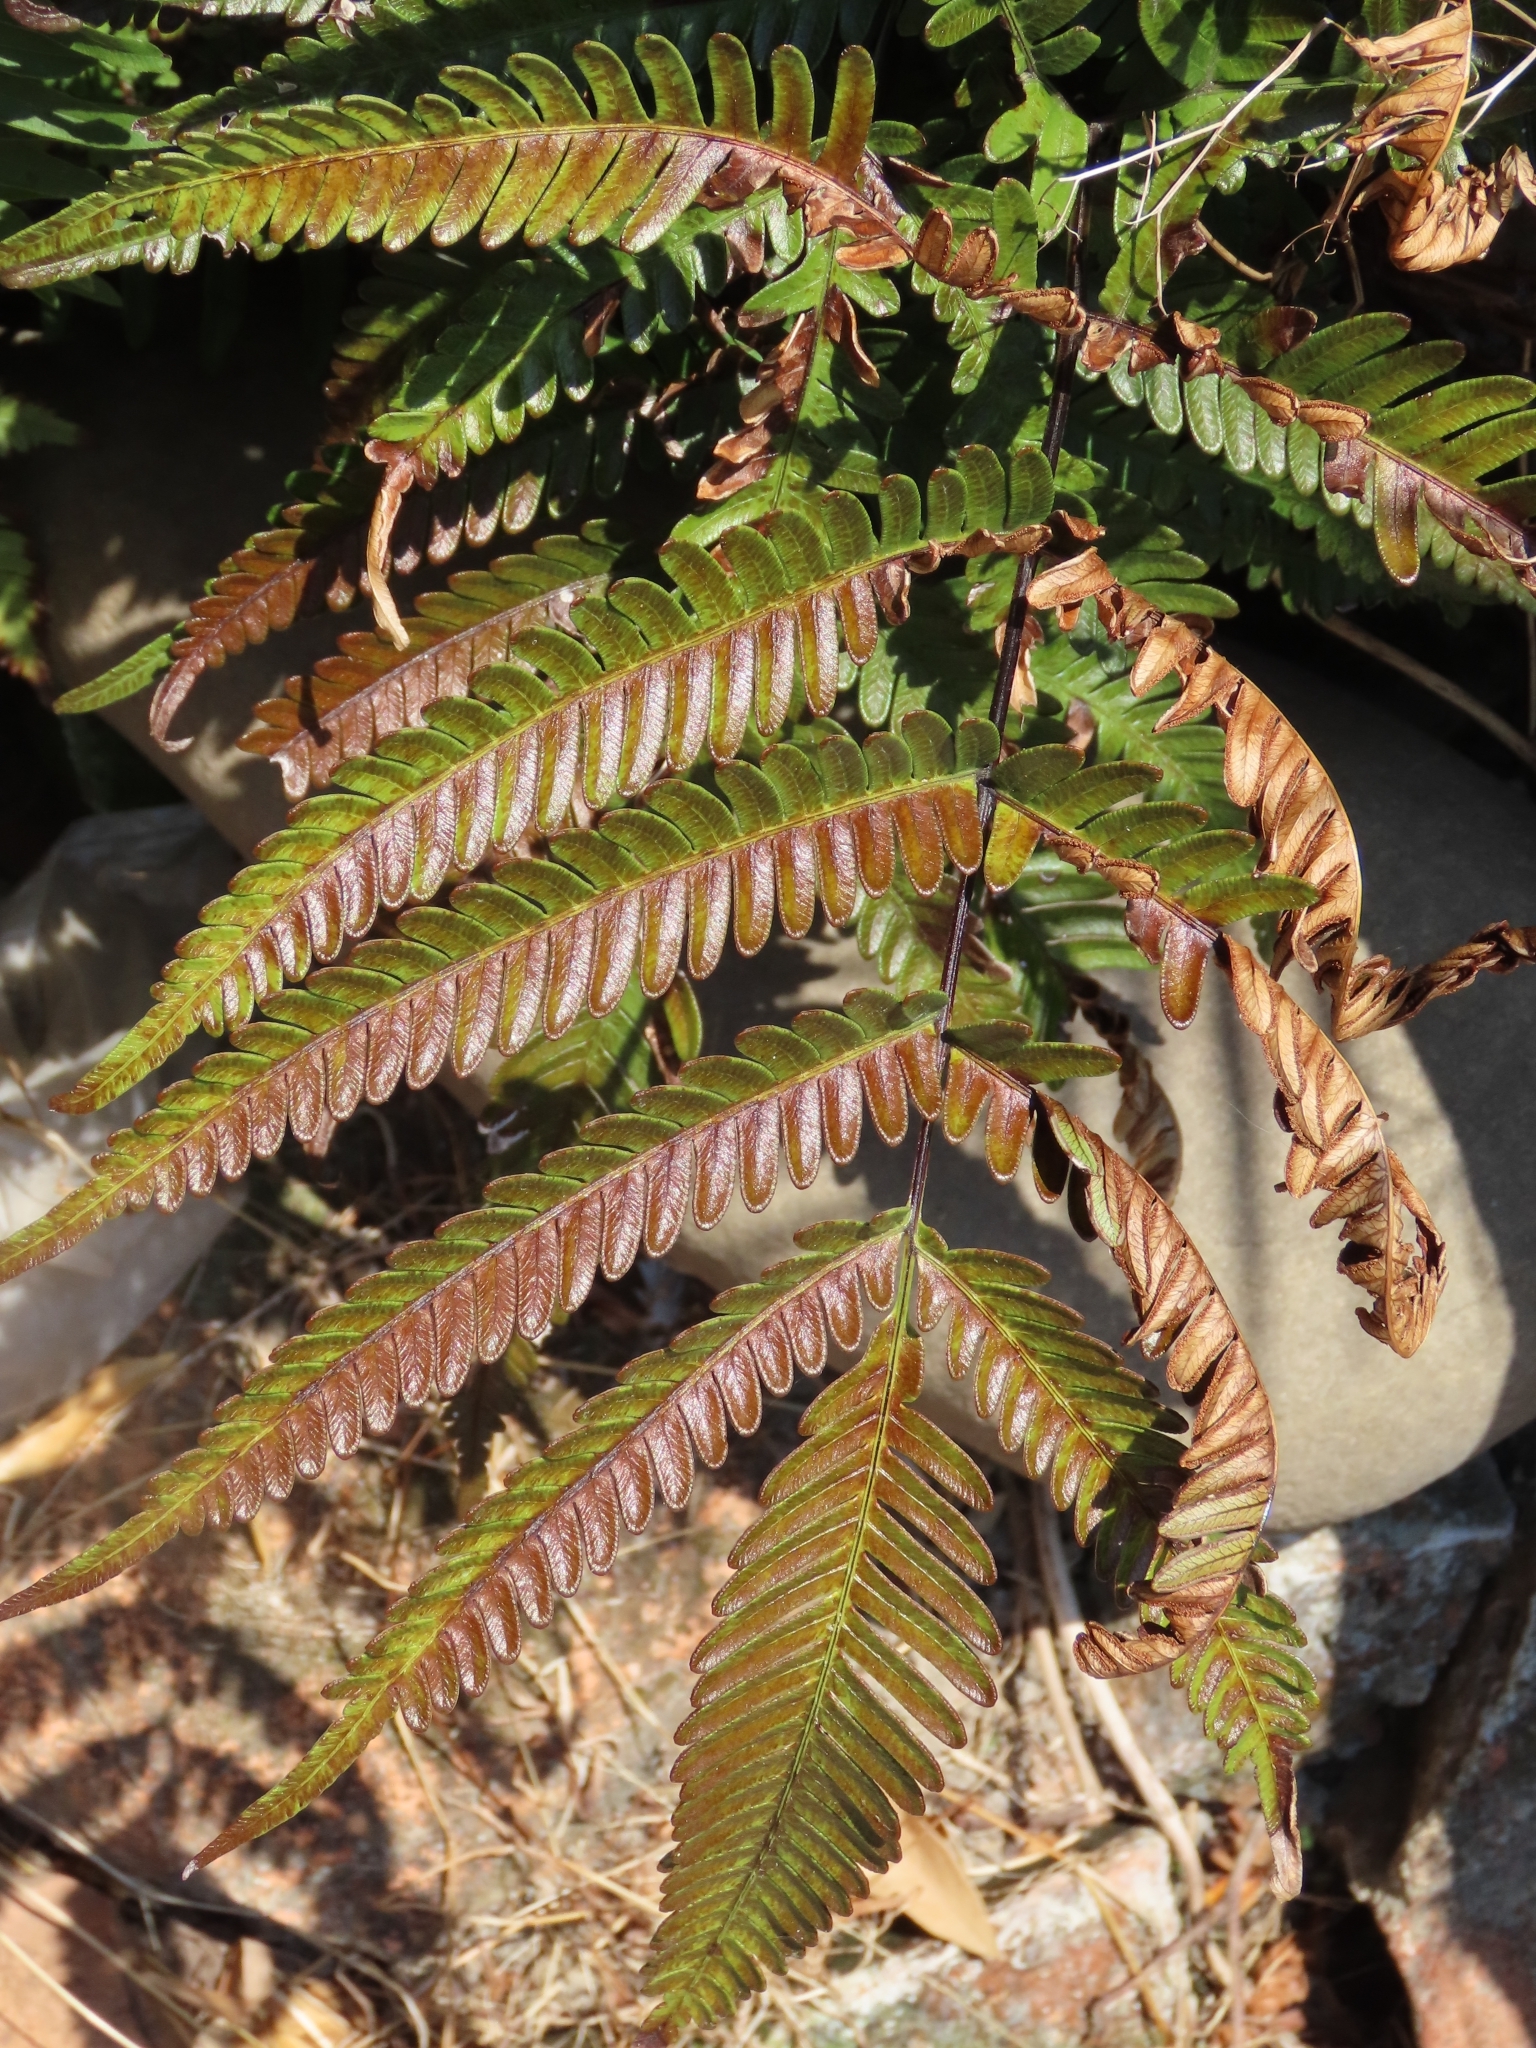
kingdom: Plantae
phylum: Tracheophyta
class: Polypodiopsida
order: Polypodiales
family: Pteridaceae
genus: Pteris
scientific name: Pteris fauriei
